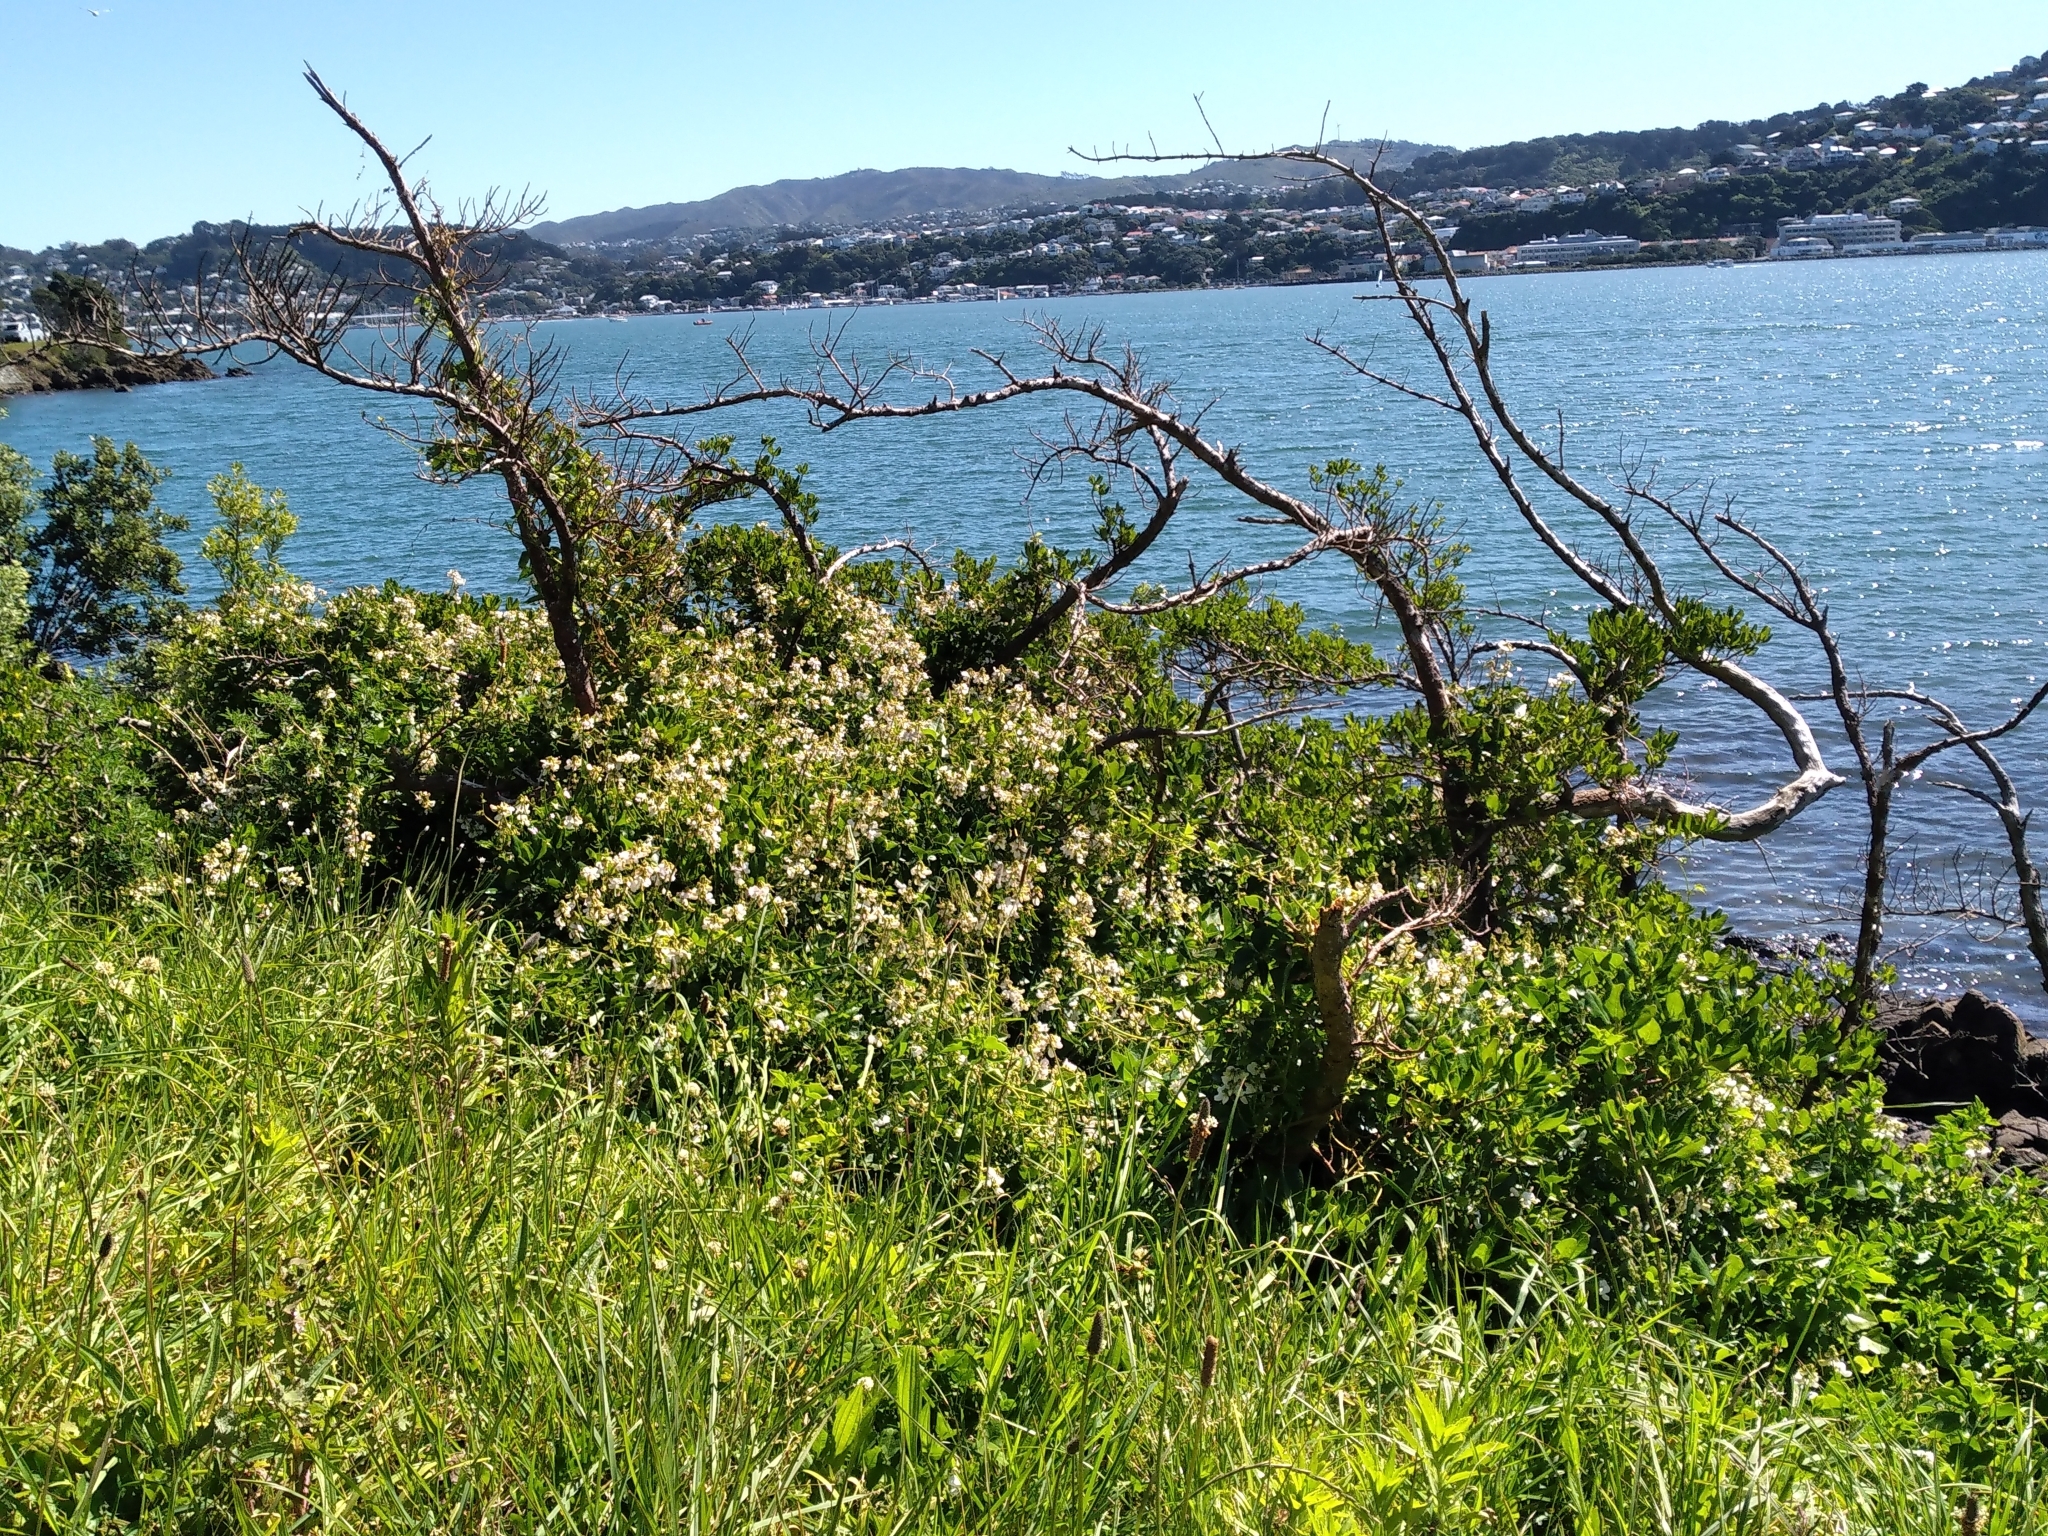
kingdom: Plantae
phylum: Tracheophyta
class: Magnoliopsida
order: Fabales
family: Fabaceae
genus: Dipogon
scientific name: Dipogon lignosus
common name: Okie bean
